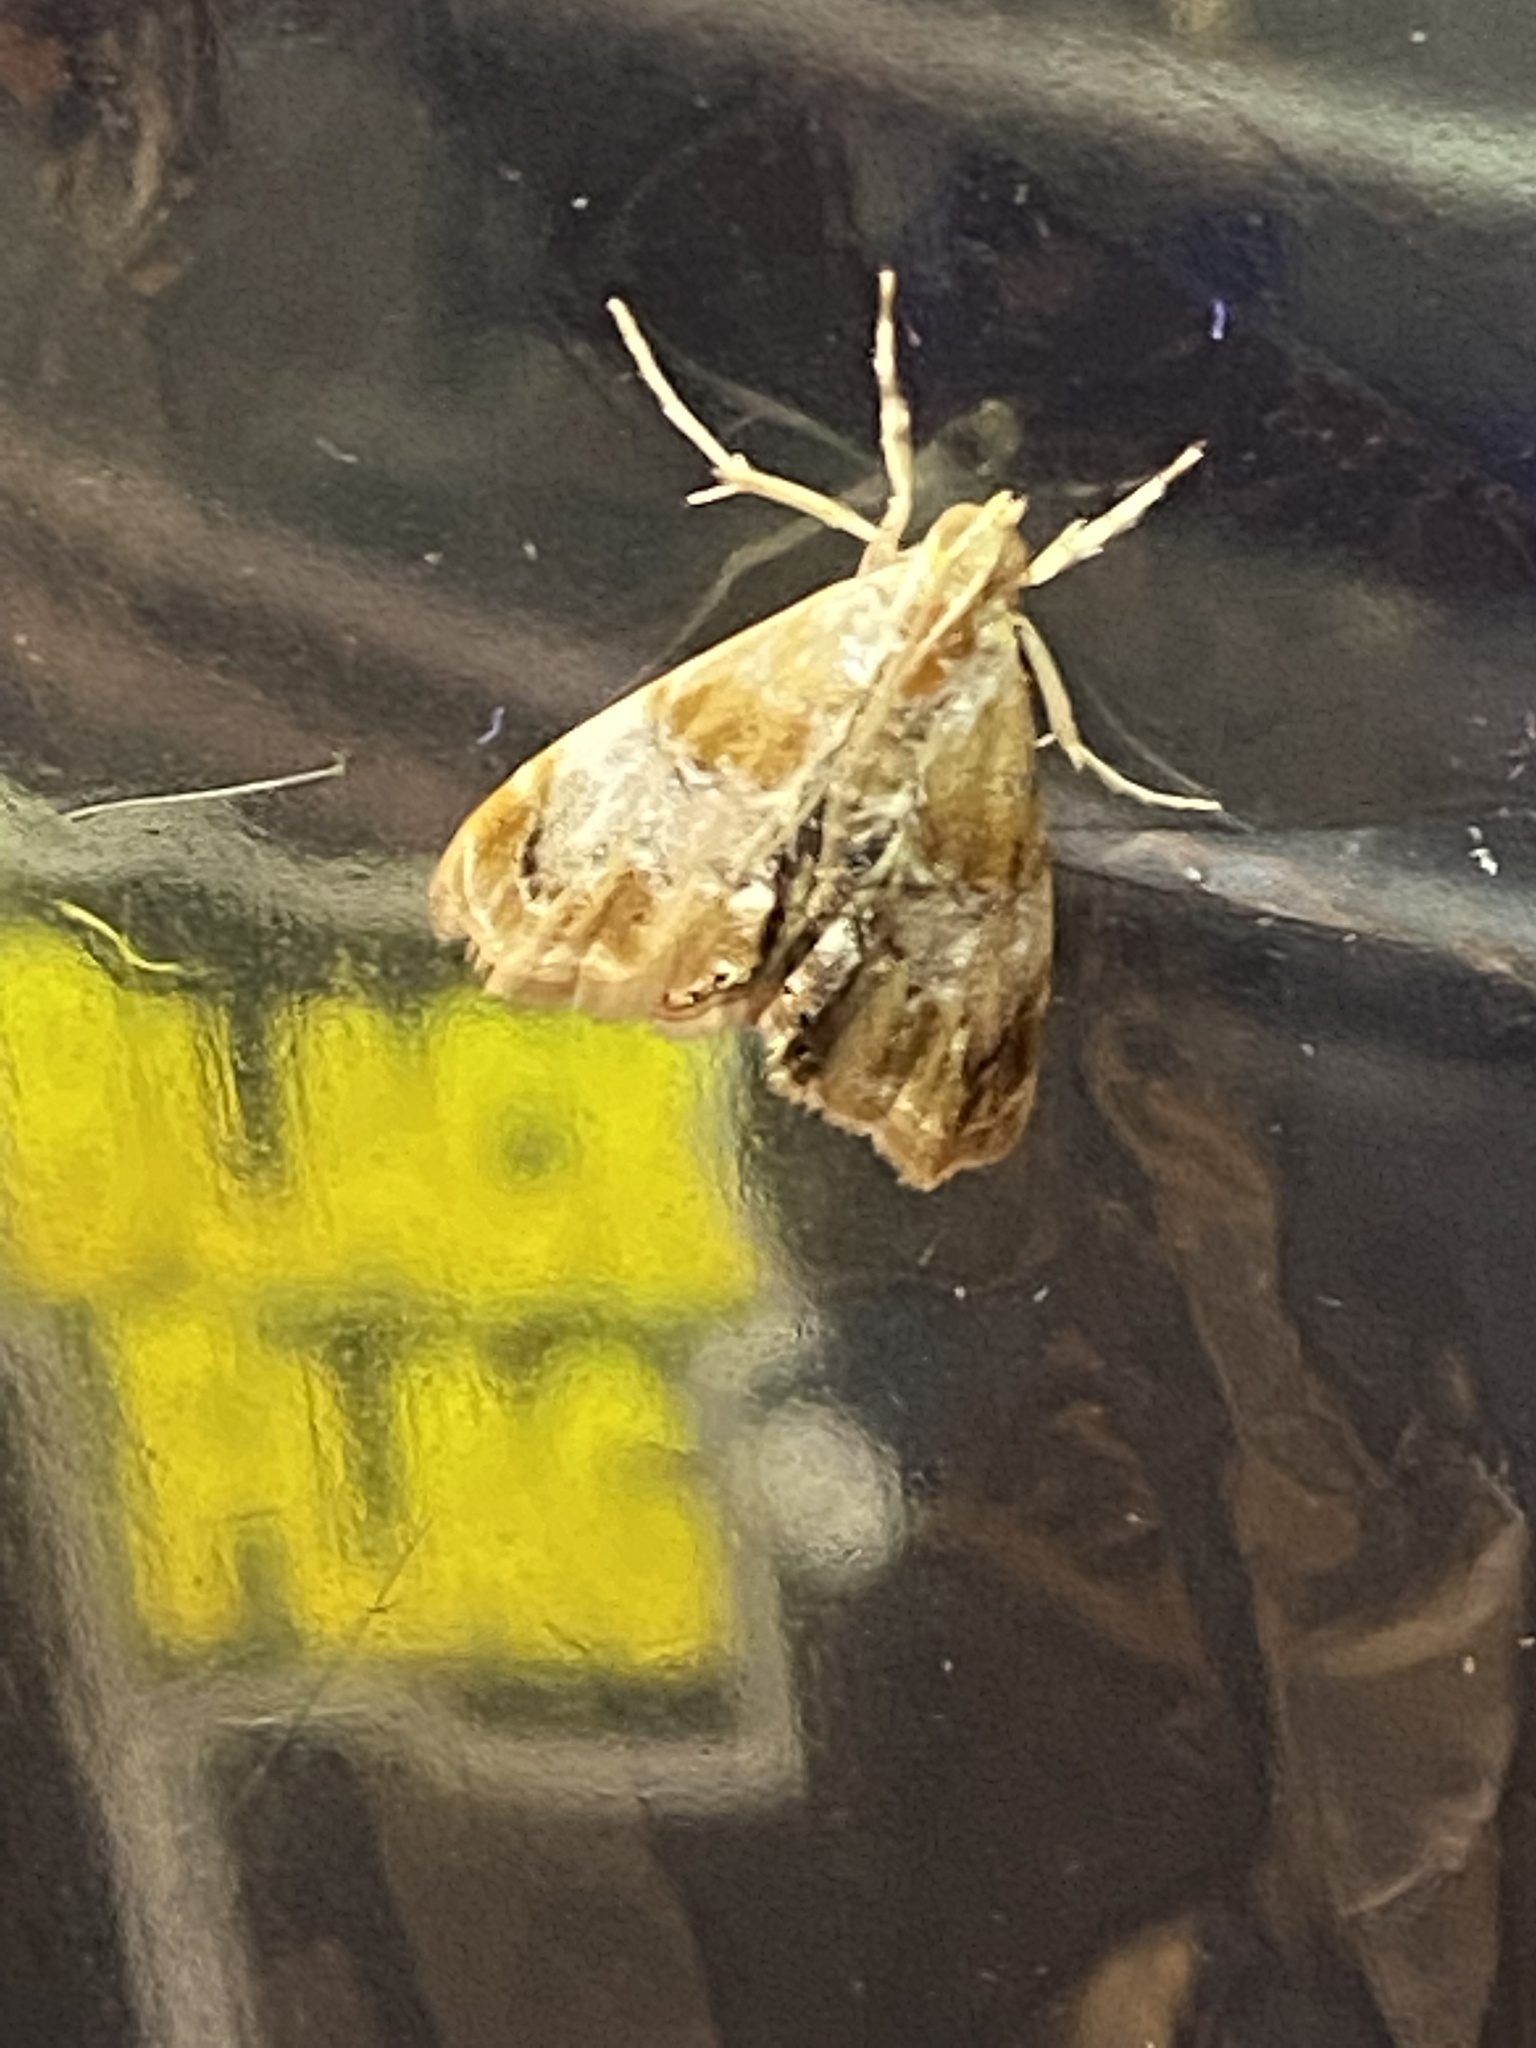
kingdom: Animalia
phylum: Arthropoda
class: Insecta
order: Lepidoptera
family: Crambidae
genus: Dicymolomia
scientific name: Dicymolomia julianalis
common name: Julia's dicymolomia moth
